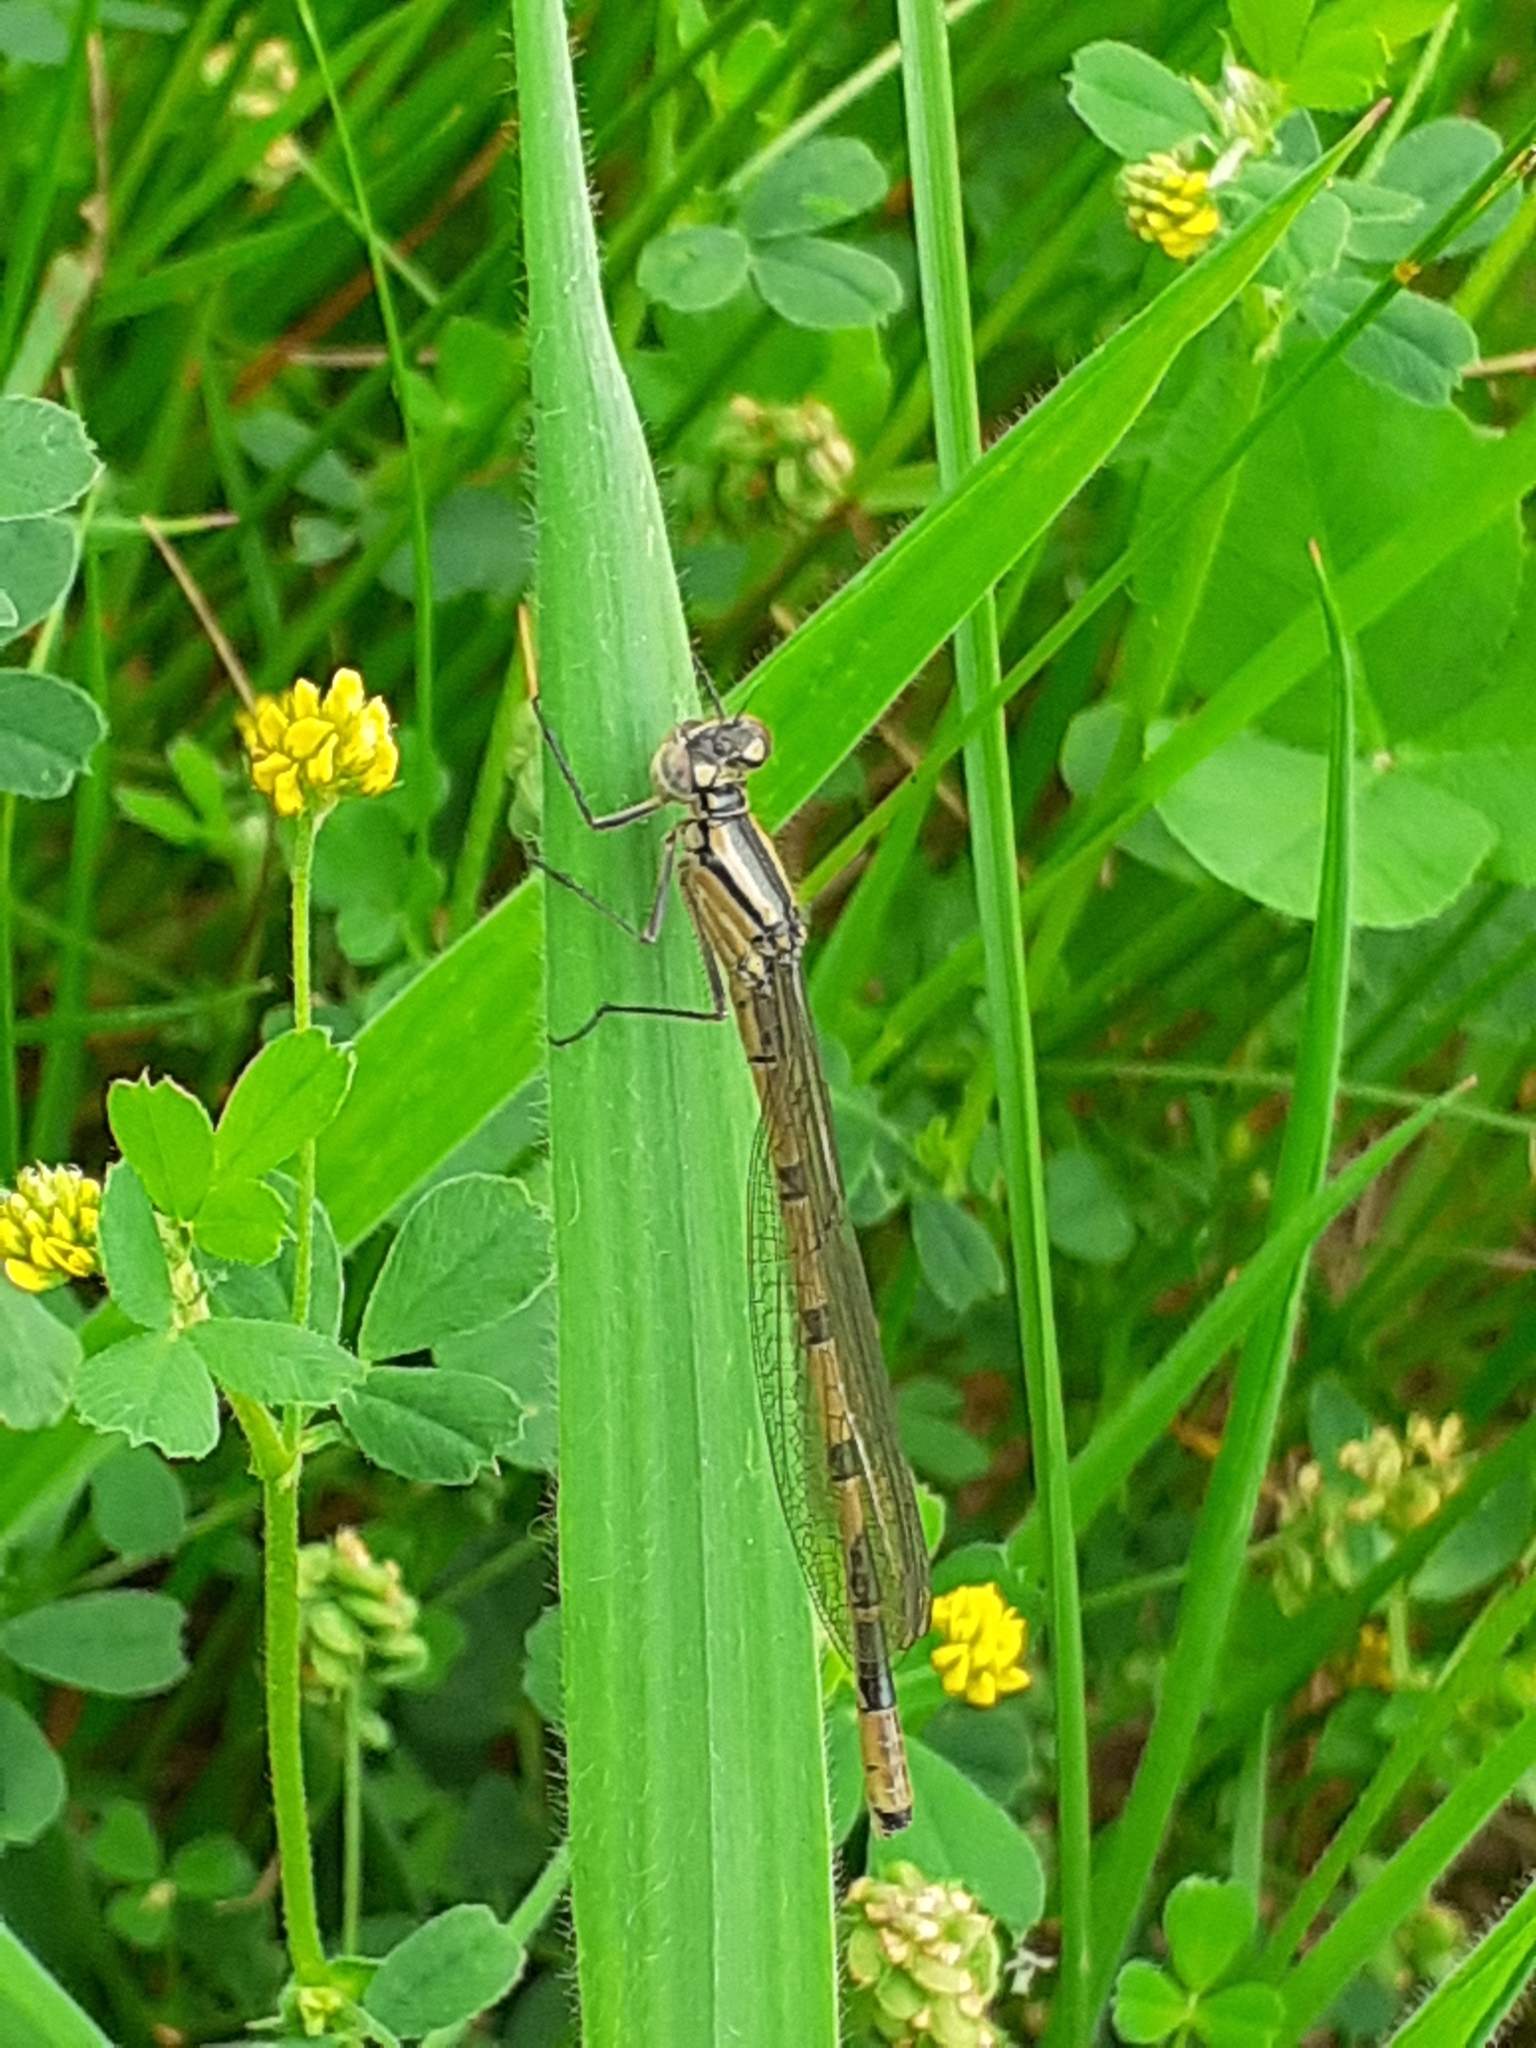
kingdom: Animalia
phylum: Arthropoda
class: Insecta
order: Odonata
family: Coenagrionidae
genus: Enallagma
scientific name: Enallagma cyathigerum
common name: Common blue damselfly
